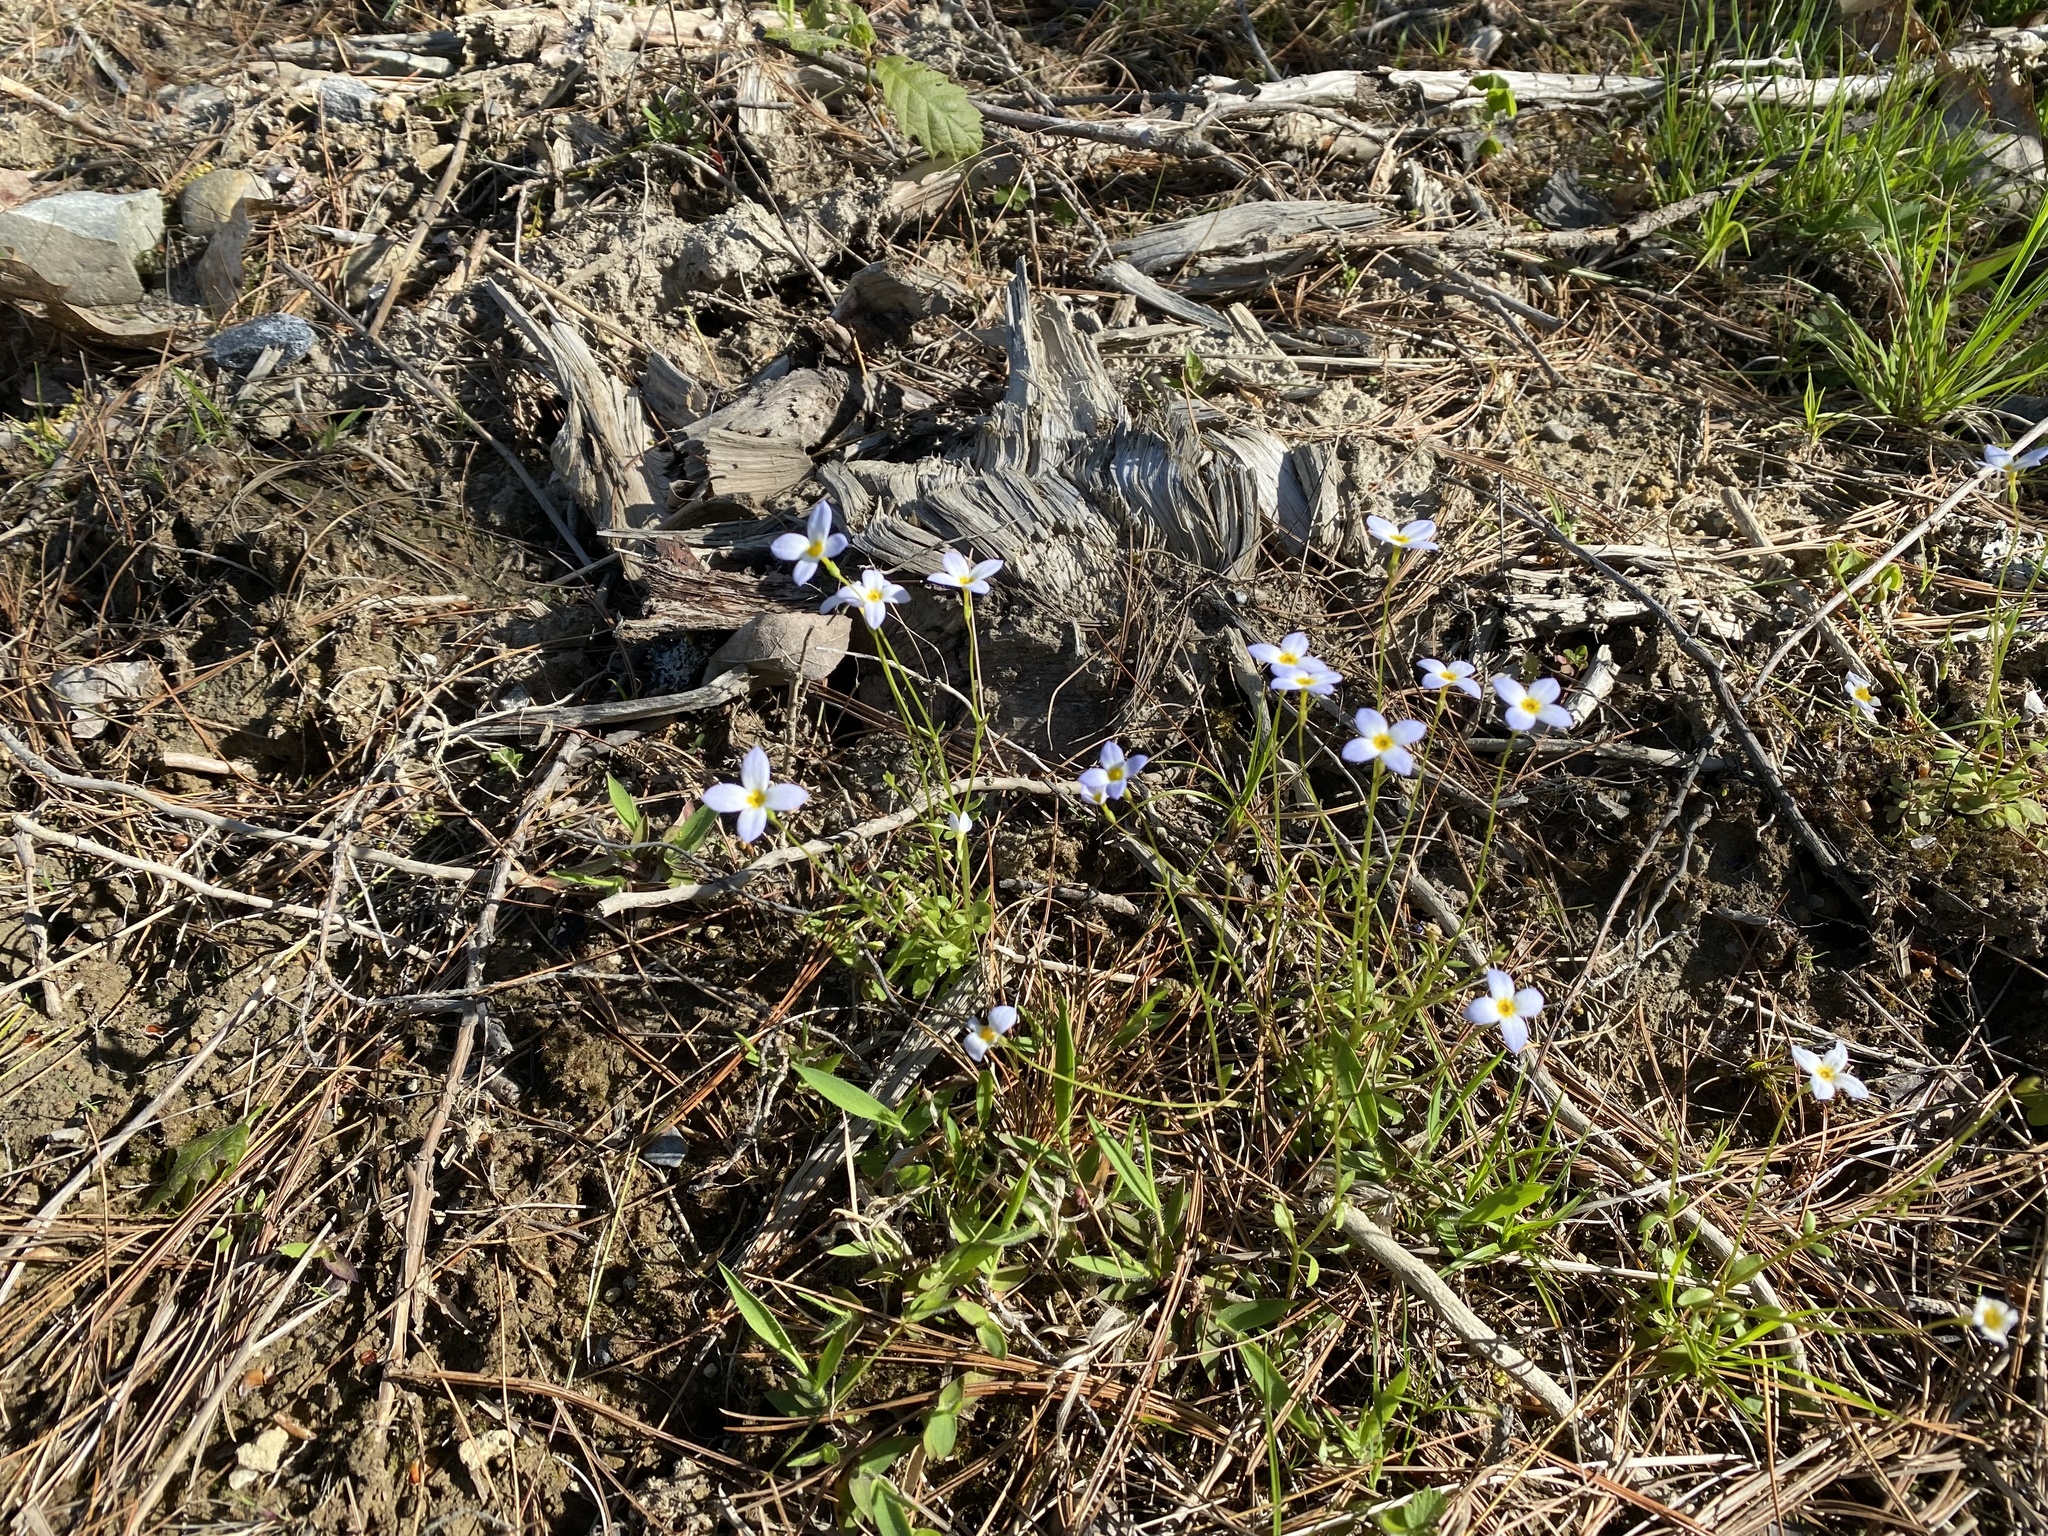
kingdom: Plantae
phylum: Tracheophyta
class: Magnoliopsida
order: Gentianales
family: Rubiaceae
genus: Houstonia
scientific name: Houstonia caerulea
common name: Bluets
